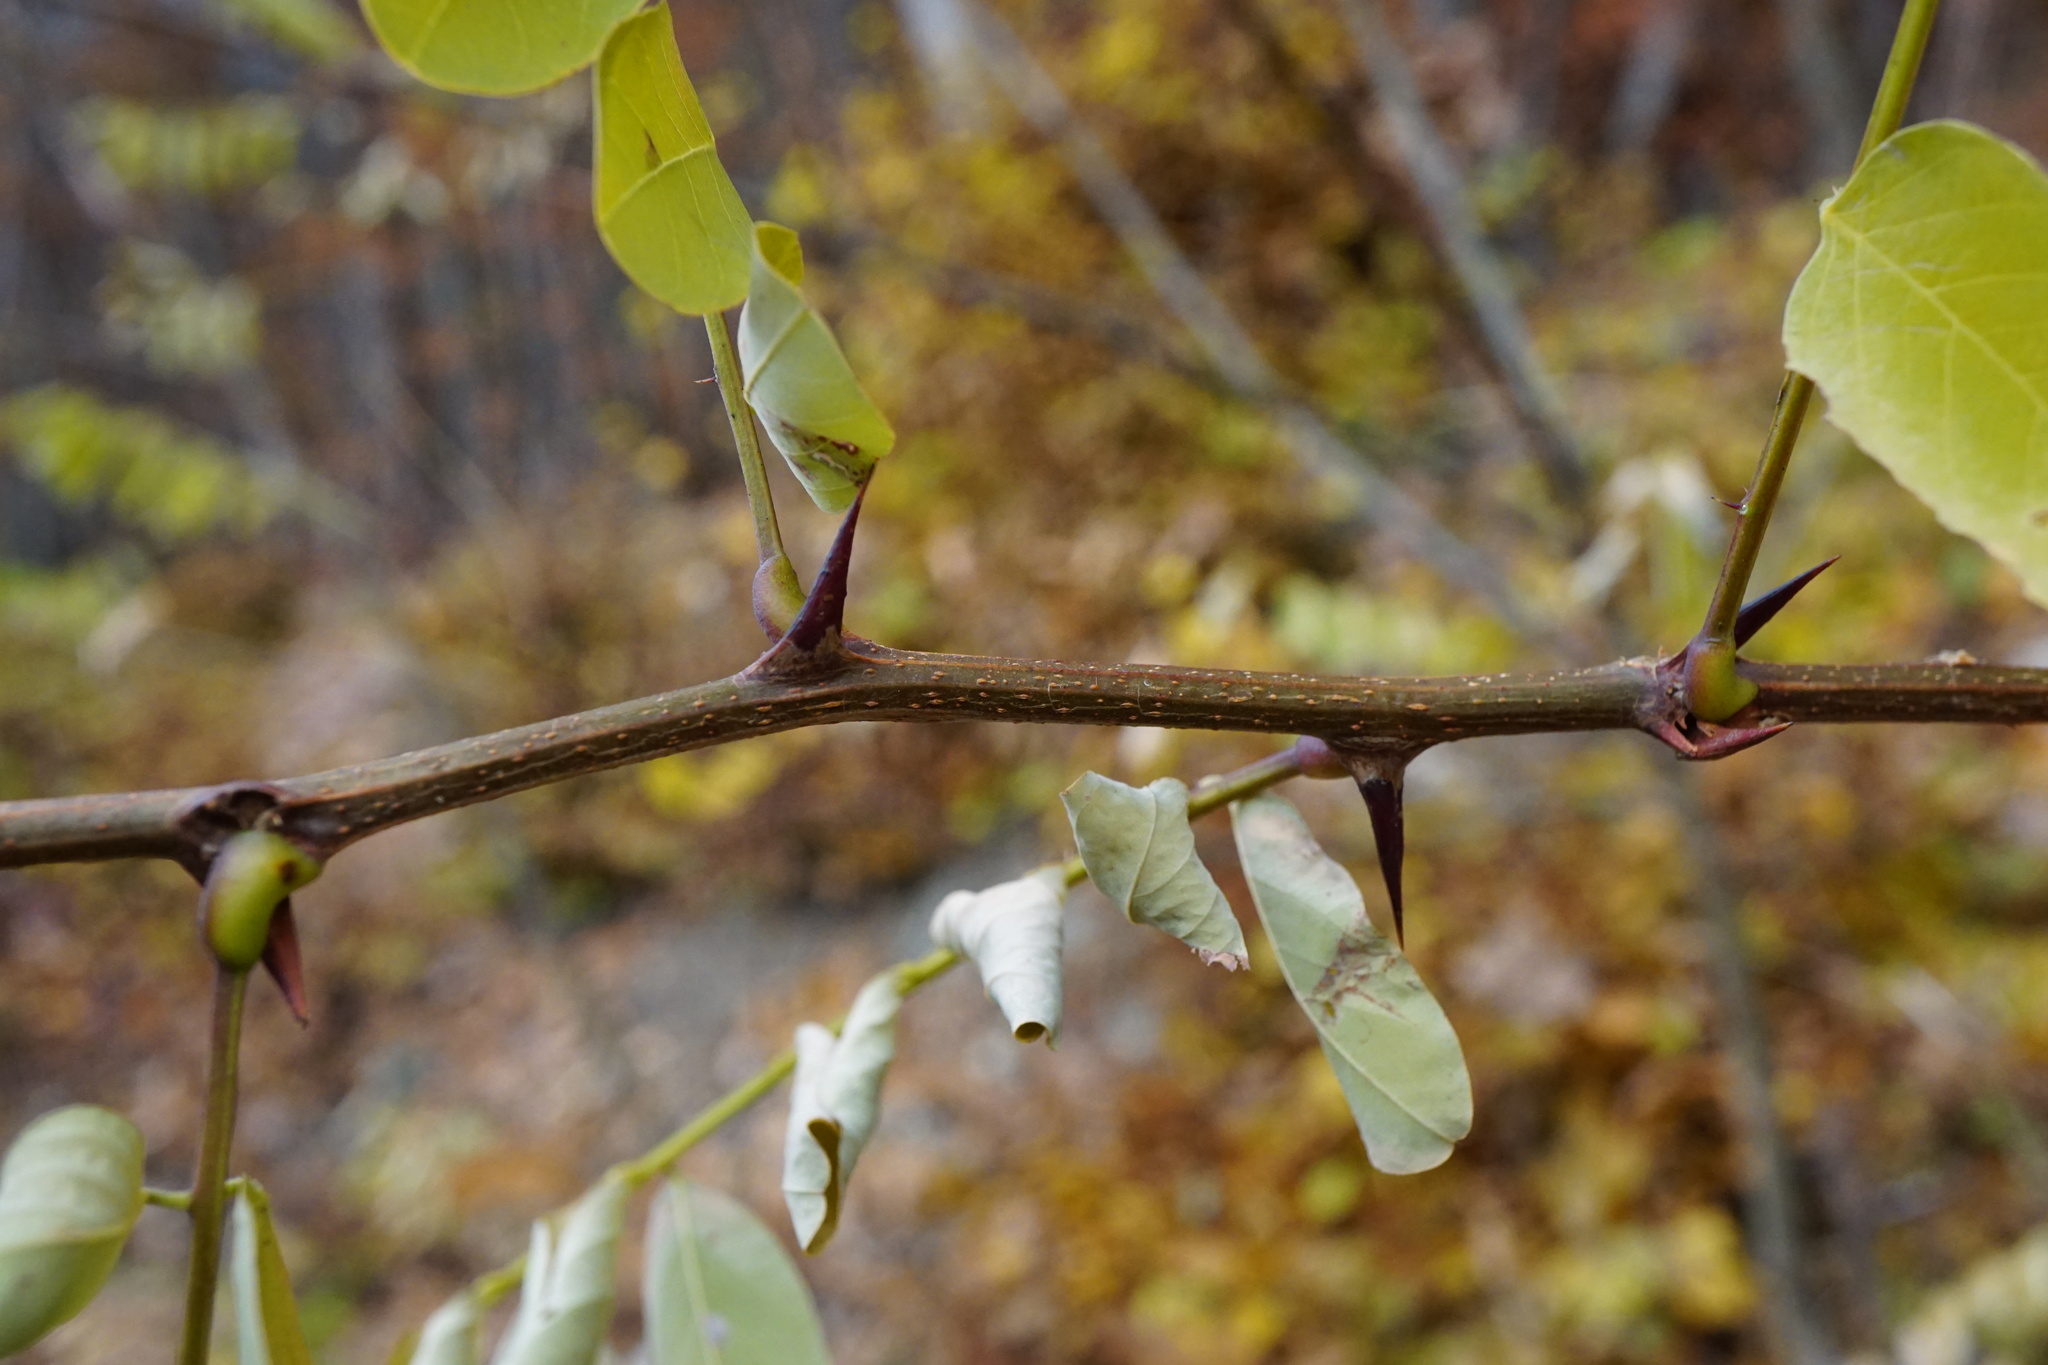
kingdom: Plantae
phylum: Tracheophyta
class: Magnoliopsida
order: Fabales
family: Fabaceae
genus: Robinia
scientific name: Robinia pseudoacacia
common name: Black locust
